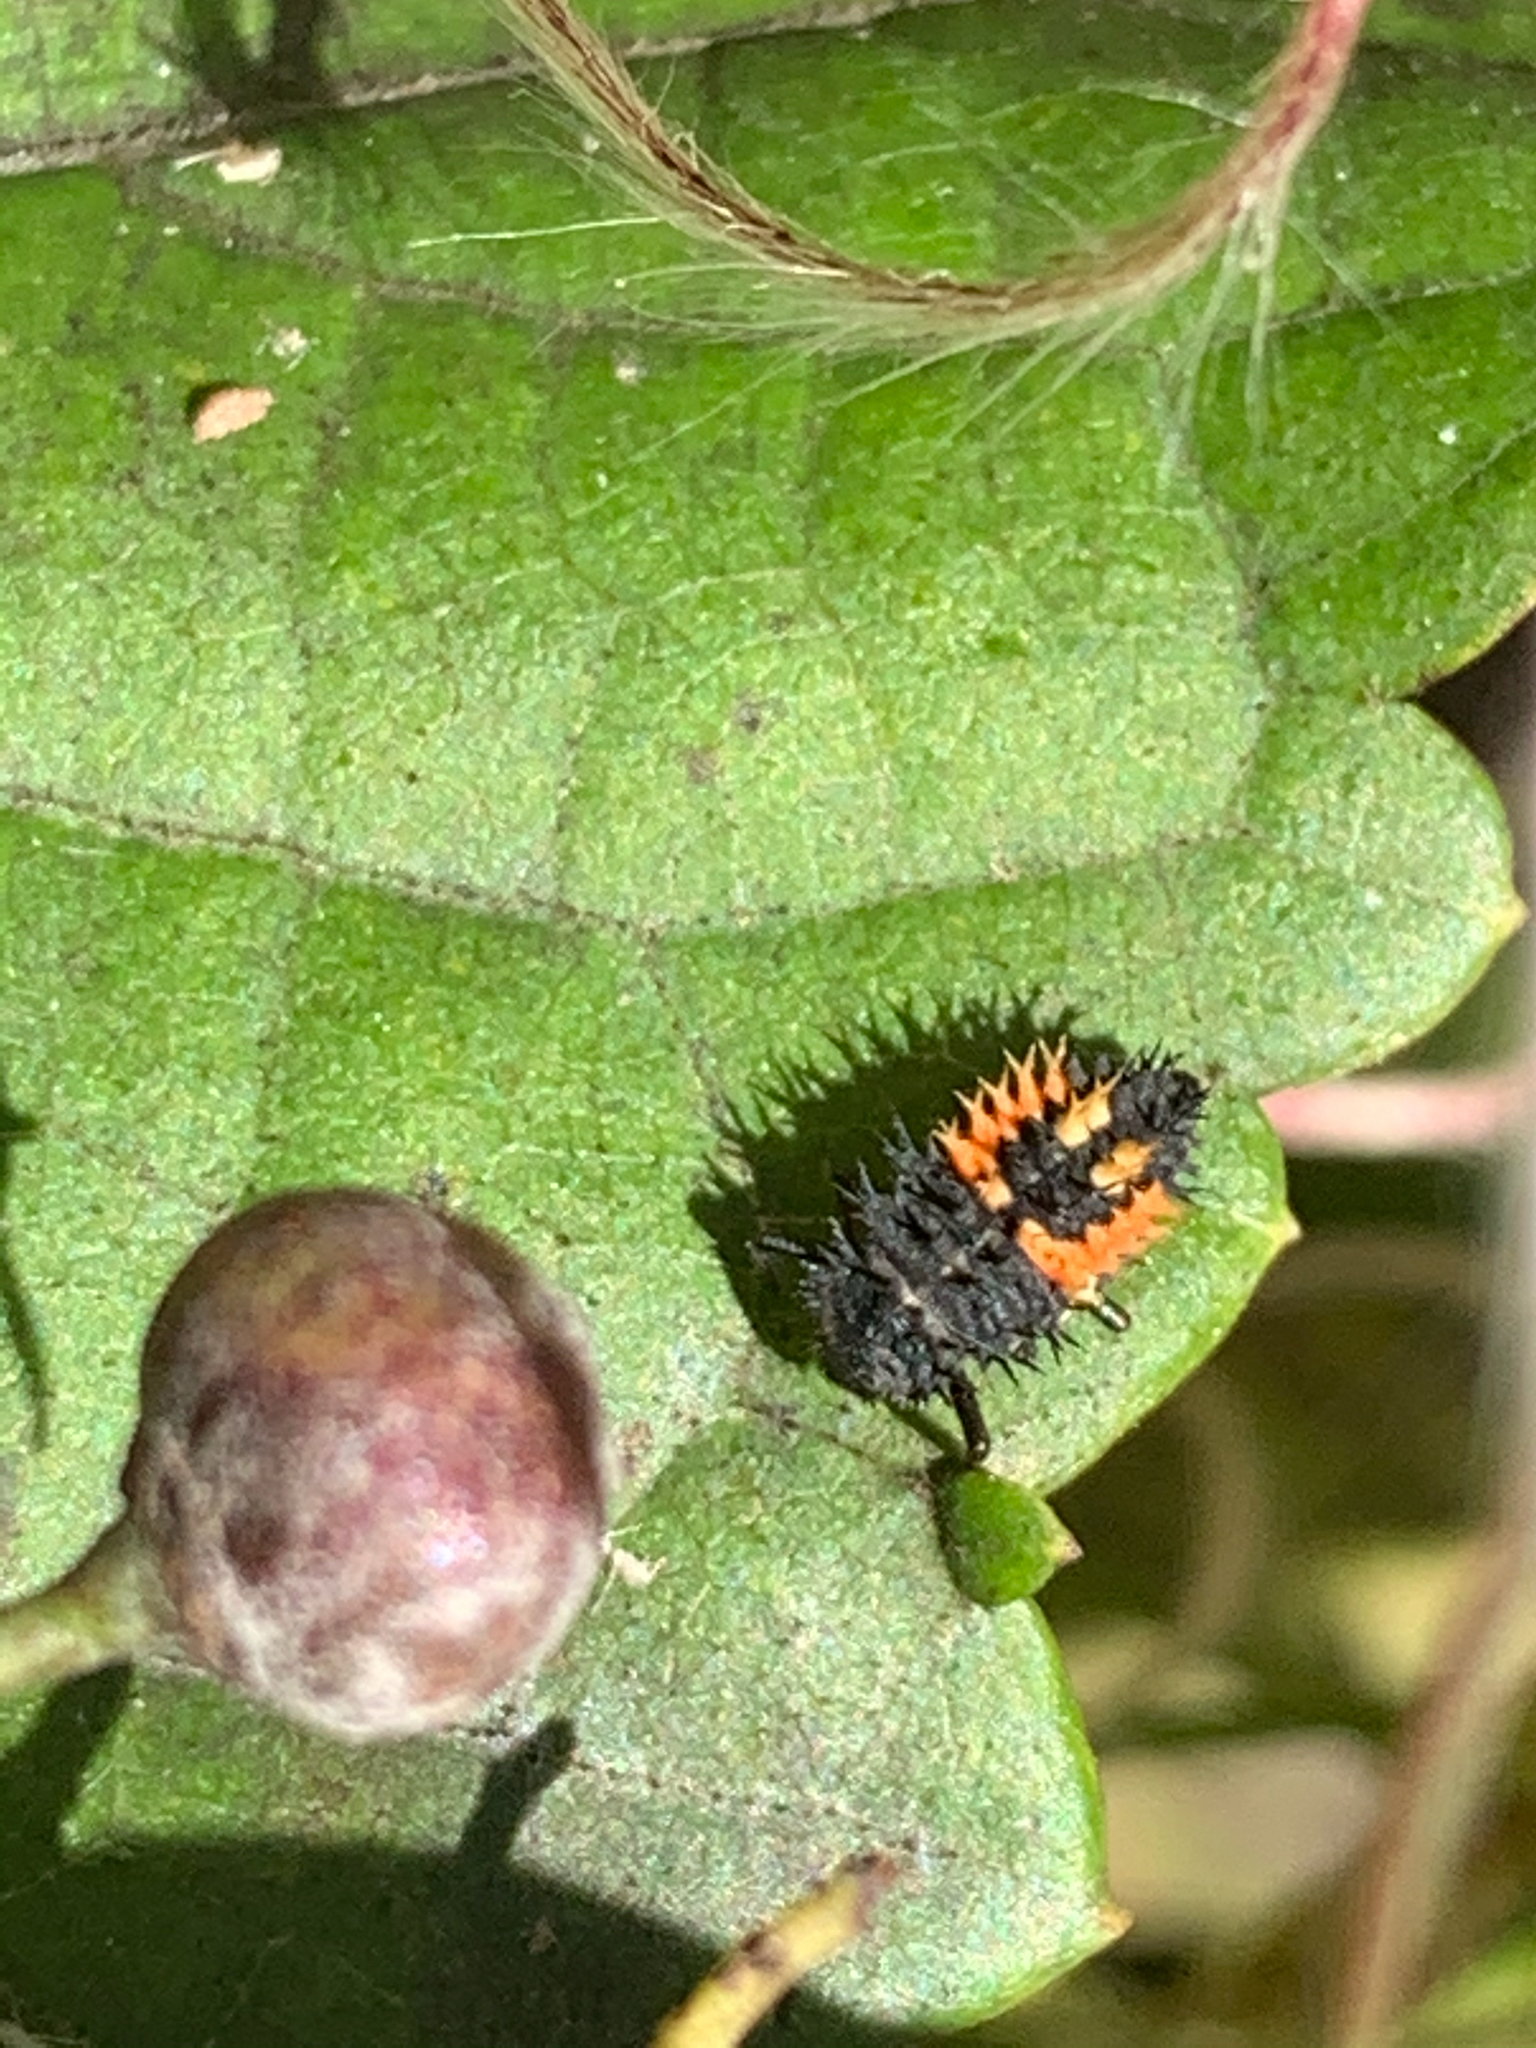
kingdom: Animalia
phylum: Arthropoda
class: Insecta
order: Coleoptera
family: Coccinellidae
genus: Harmonia
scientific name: Harmonia axyridis
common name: Harlequin ladybird
